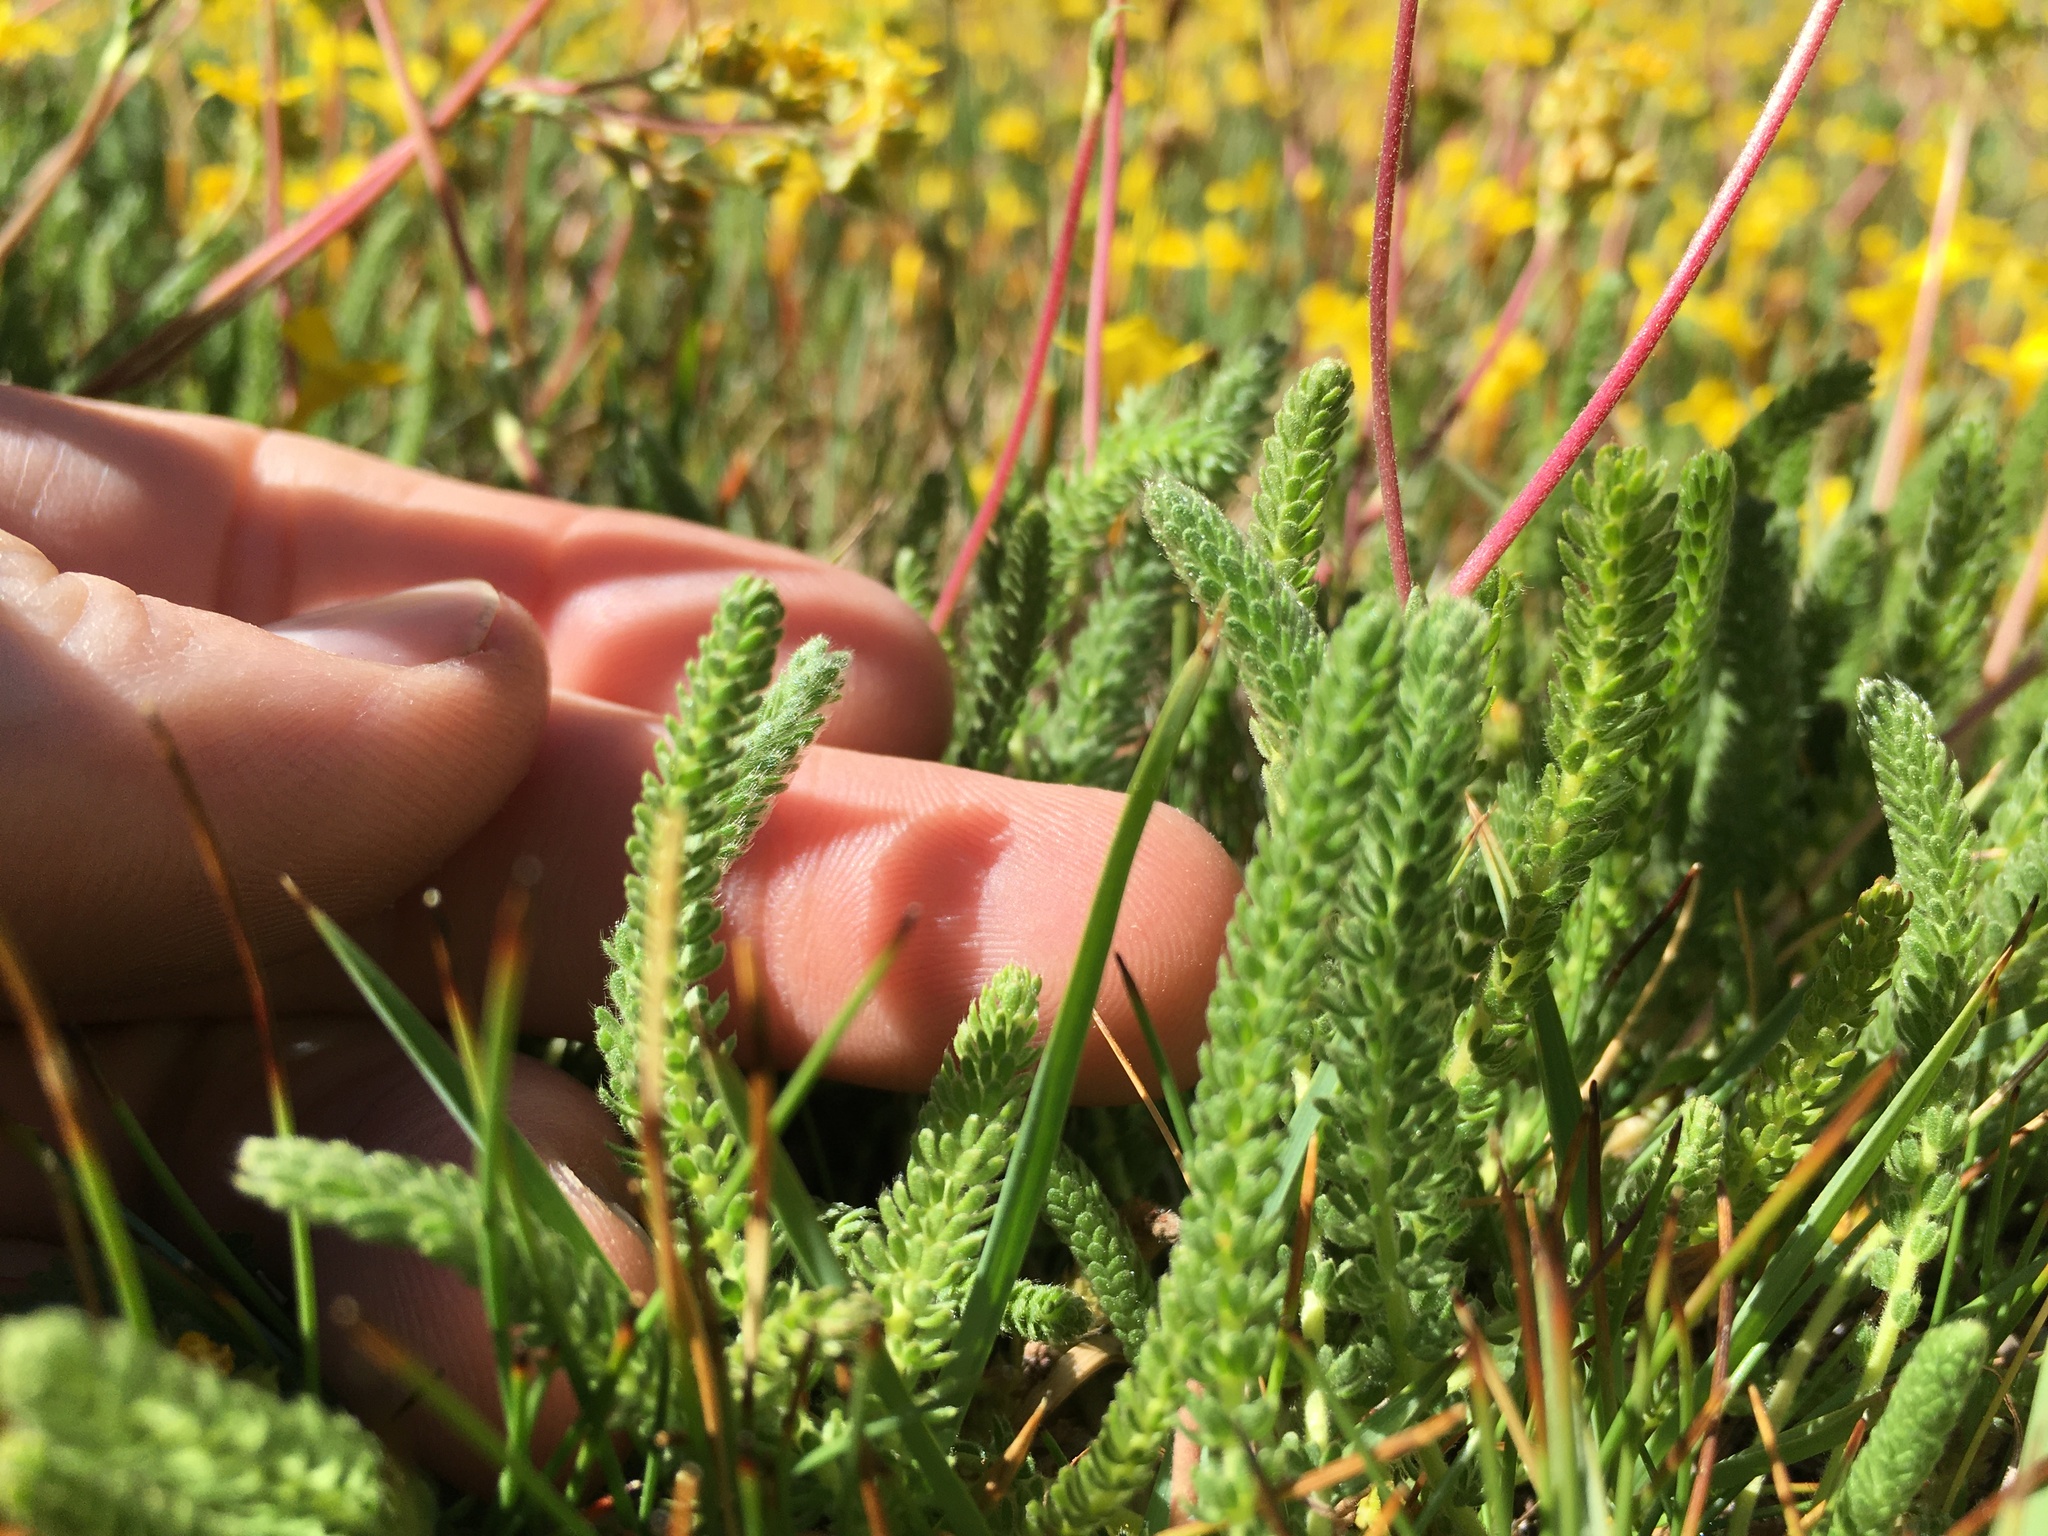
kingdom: Plantae
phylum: Tracheophyta
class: Magnoliopsida
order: Rosales
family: Rosaceae
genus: Potentilla
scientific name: Potentilla lycopodioides
